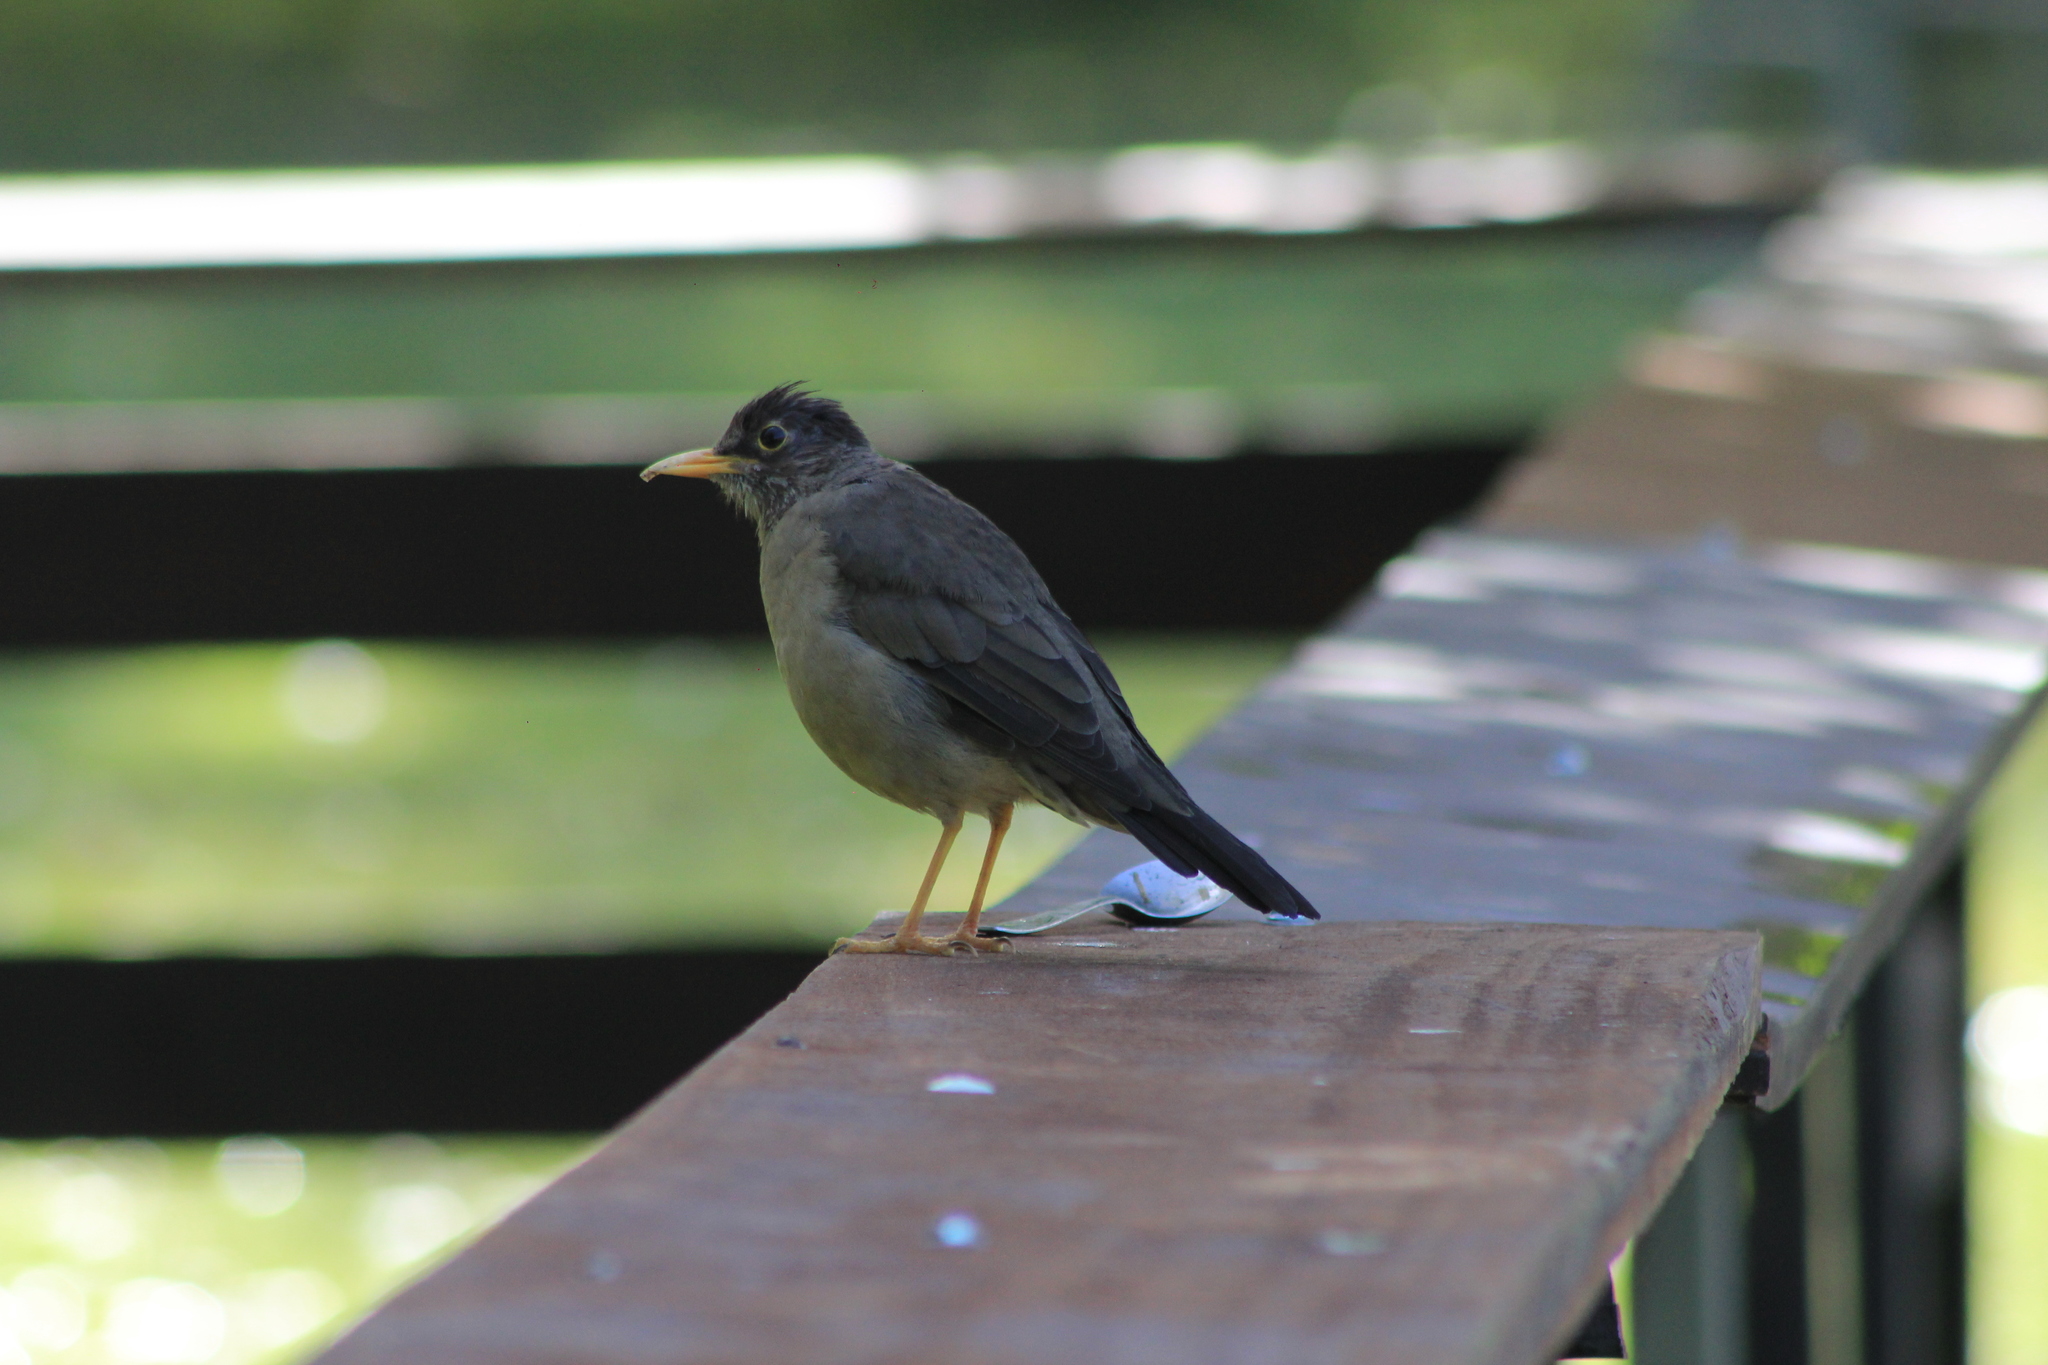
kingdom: Animalia
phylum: Chordata
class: Aves
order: Passeriformes
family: Turdidae
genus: Turdus
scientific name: Turdus falcklandii
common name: Austral thrush
